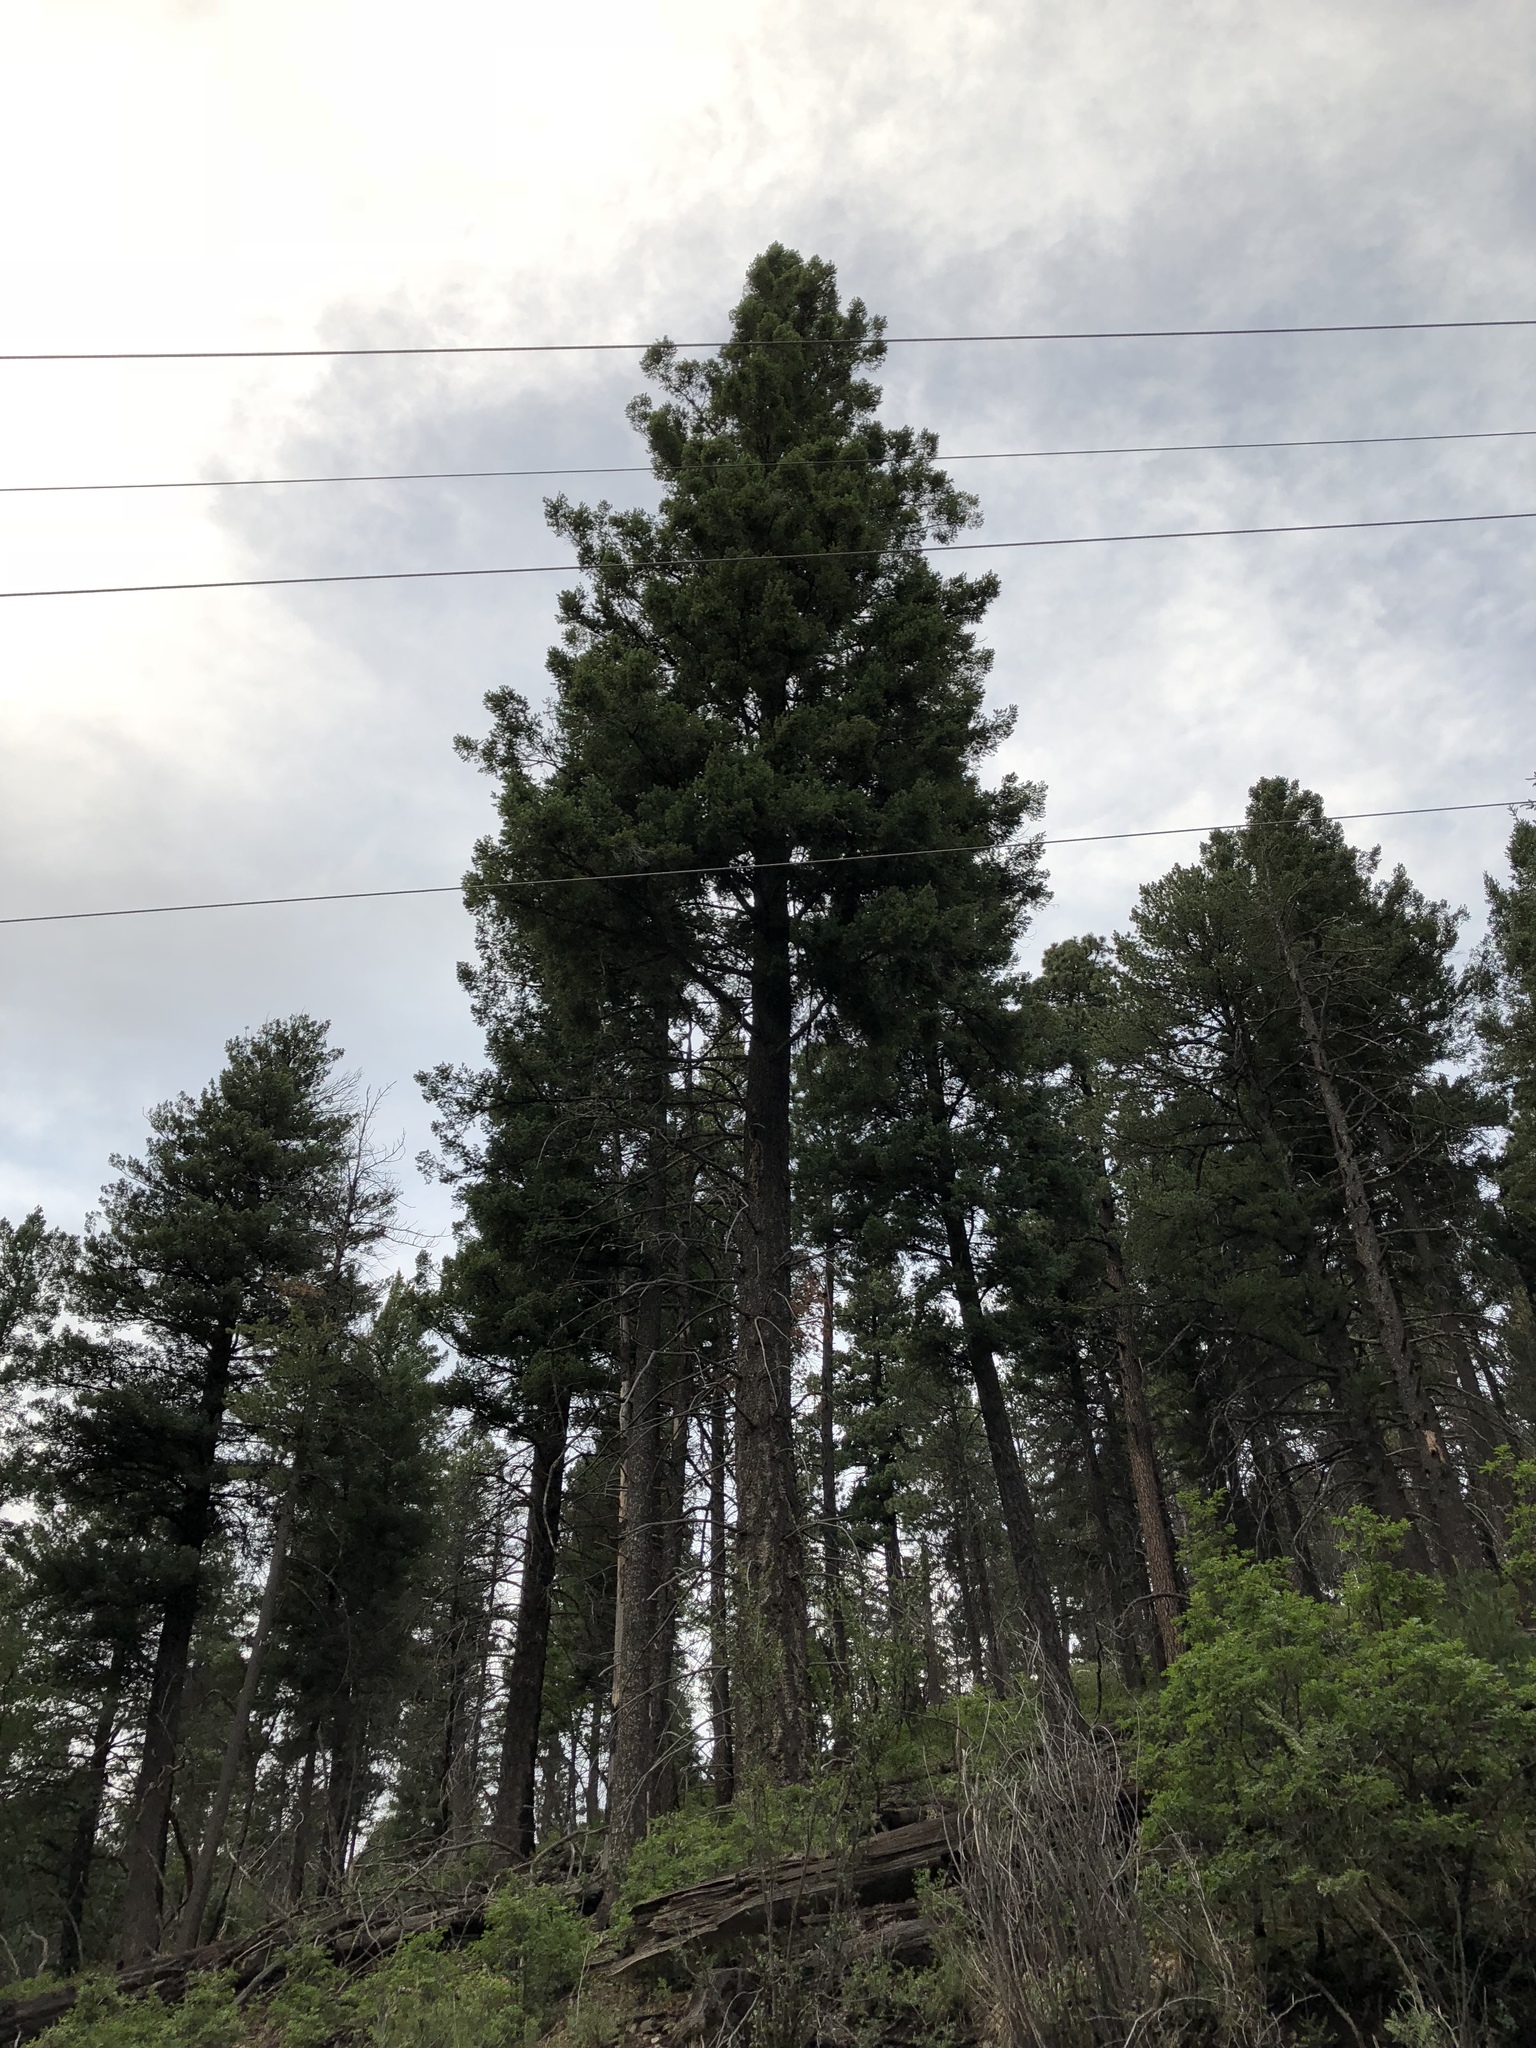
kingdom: Plantae
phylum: Tracheophyta
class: Pinopsida
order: Pinales
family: Pinaceae
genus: Pseudotsuga
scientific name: Pseudotsuga menziesii
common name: Douglas fir
